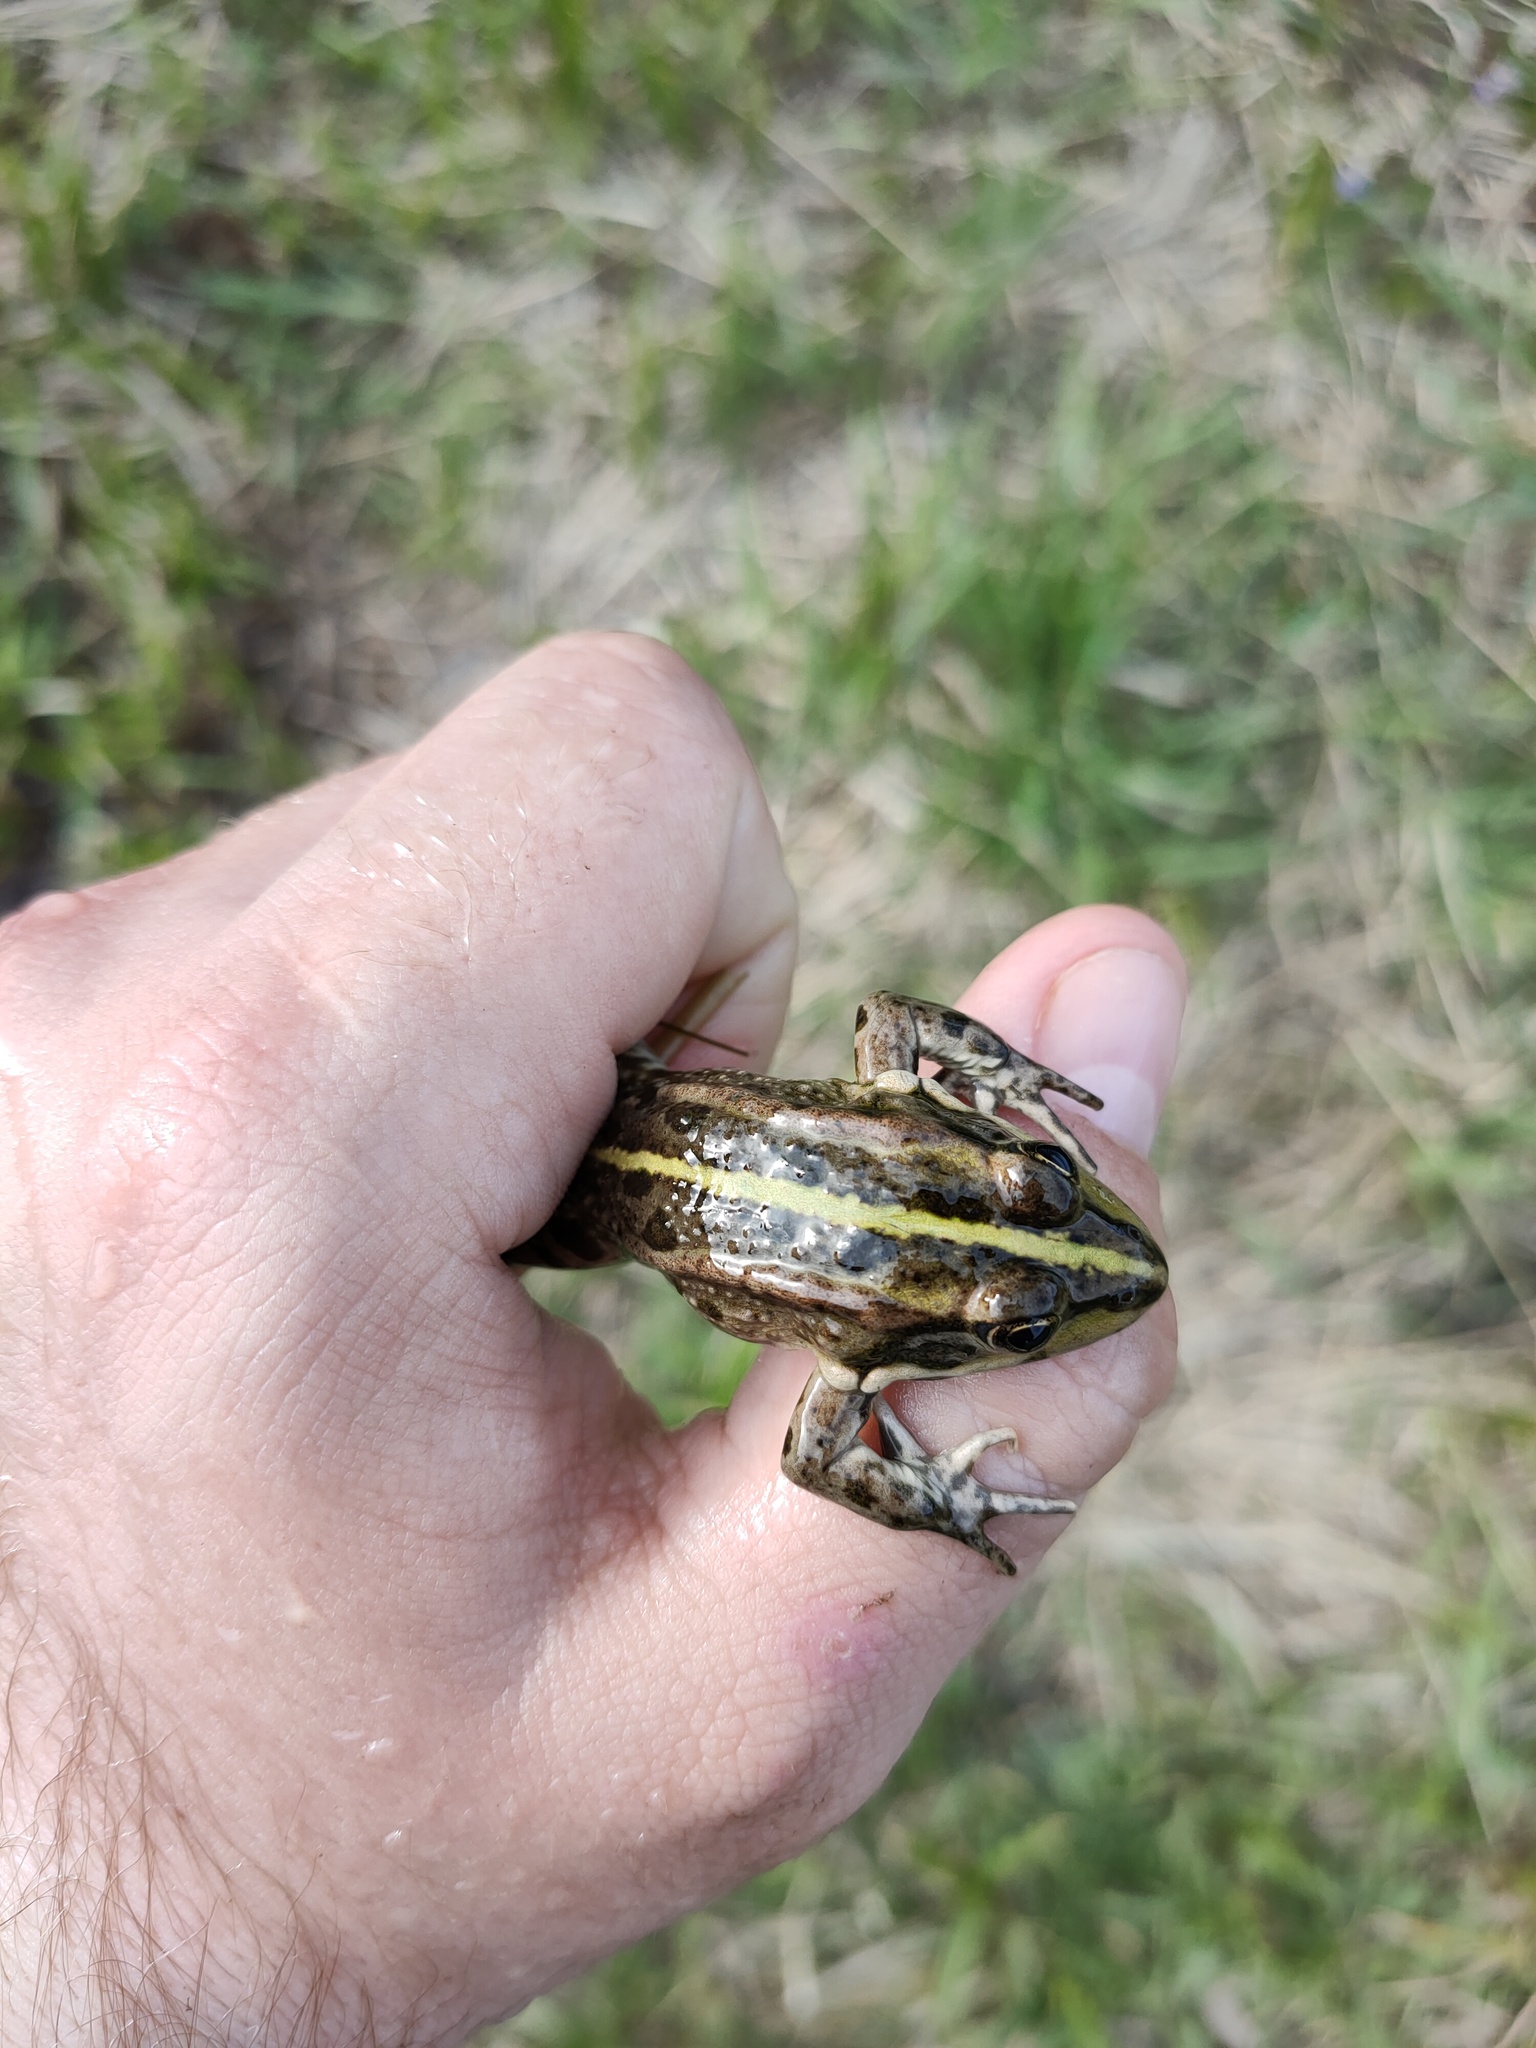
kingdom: Animalia
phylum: Chordata
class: Amphibia
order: Anura
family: Ranidae
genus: Pelophylax
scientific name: Pelophylax ridibundus
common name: Marsh frog
